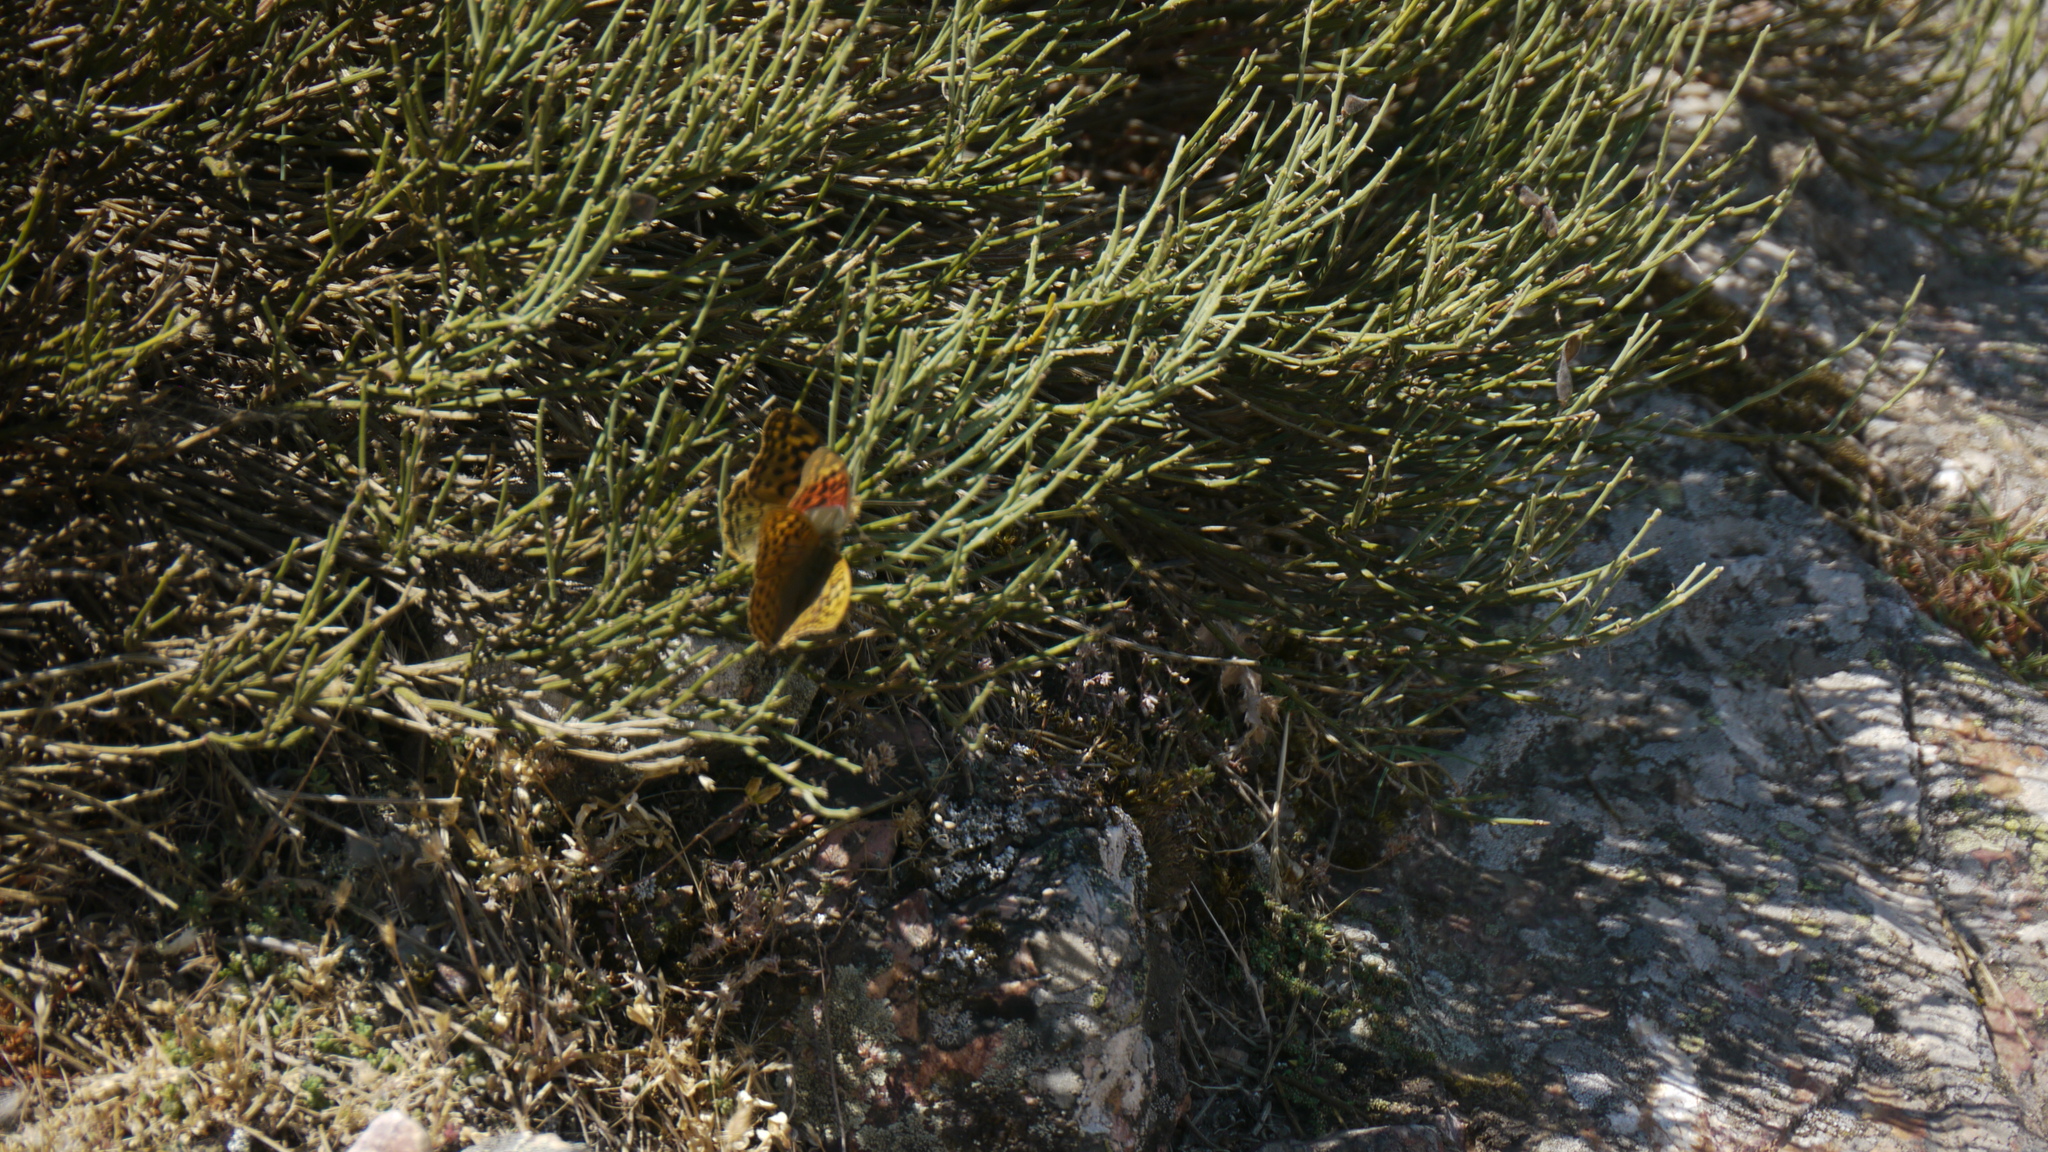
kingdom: Plantae
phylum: Tracheophyta
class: Magnoliopsida
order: Fabales
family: Fabaceae
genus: Cytisus
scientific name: Cytisus oromediterraneus
